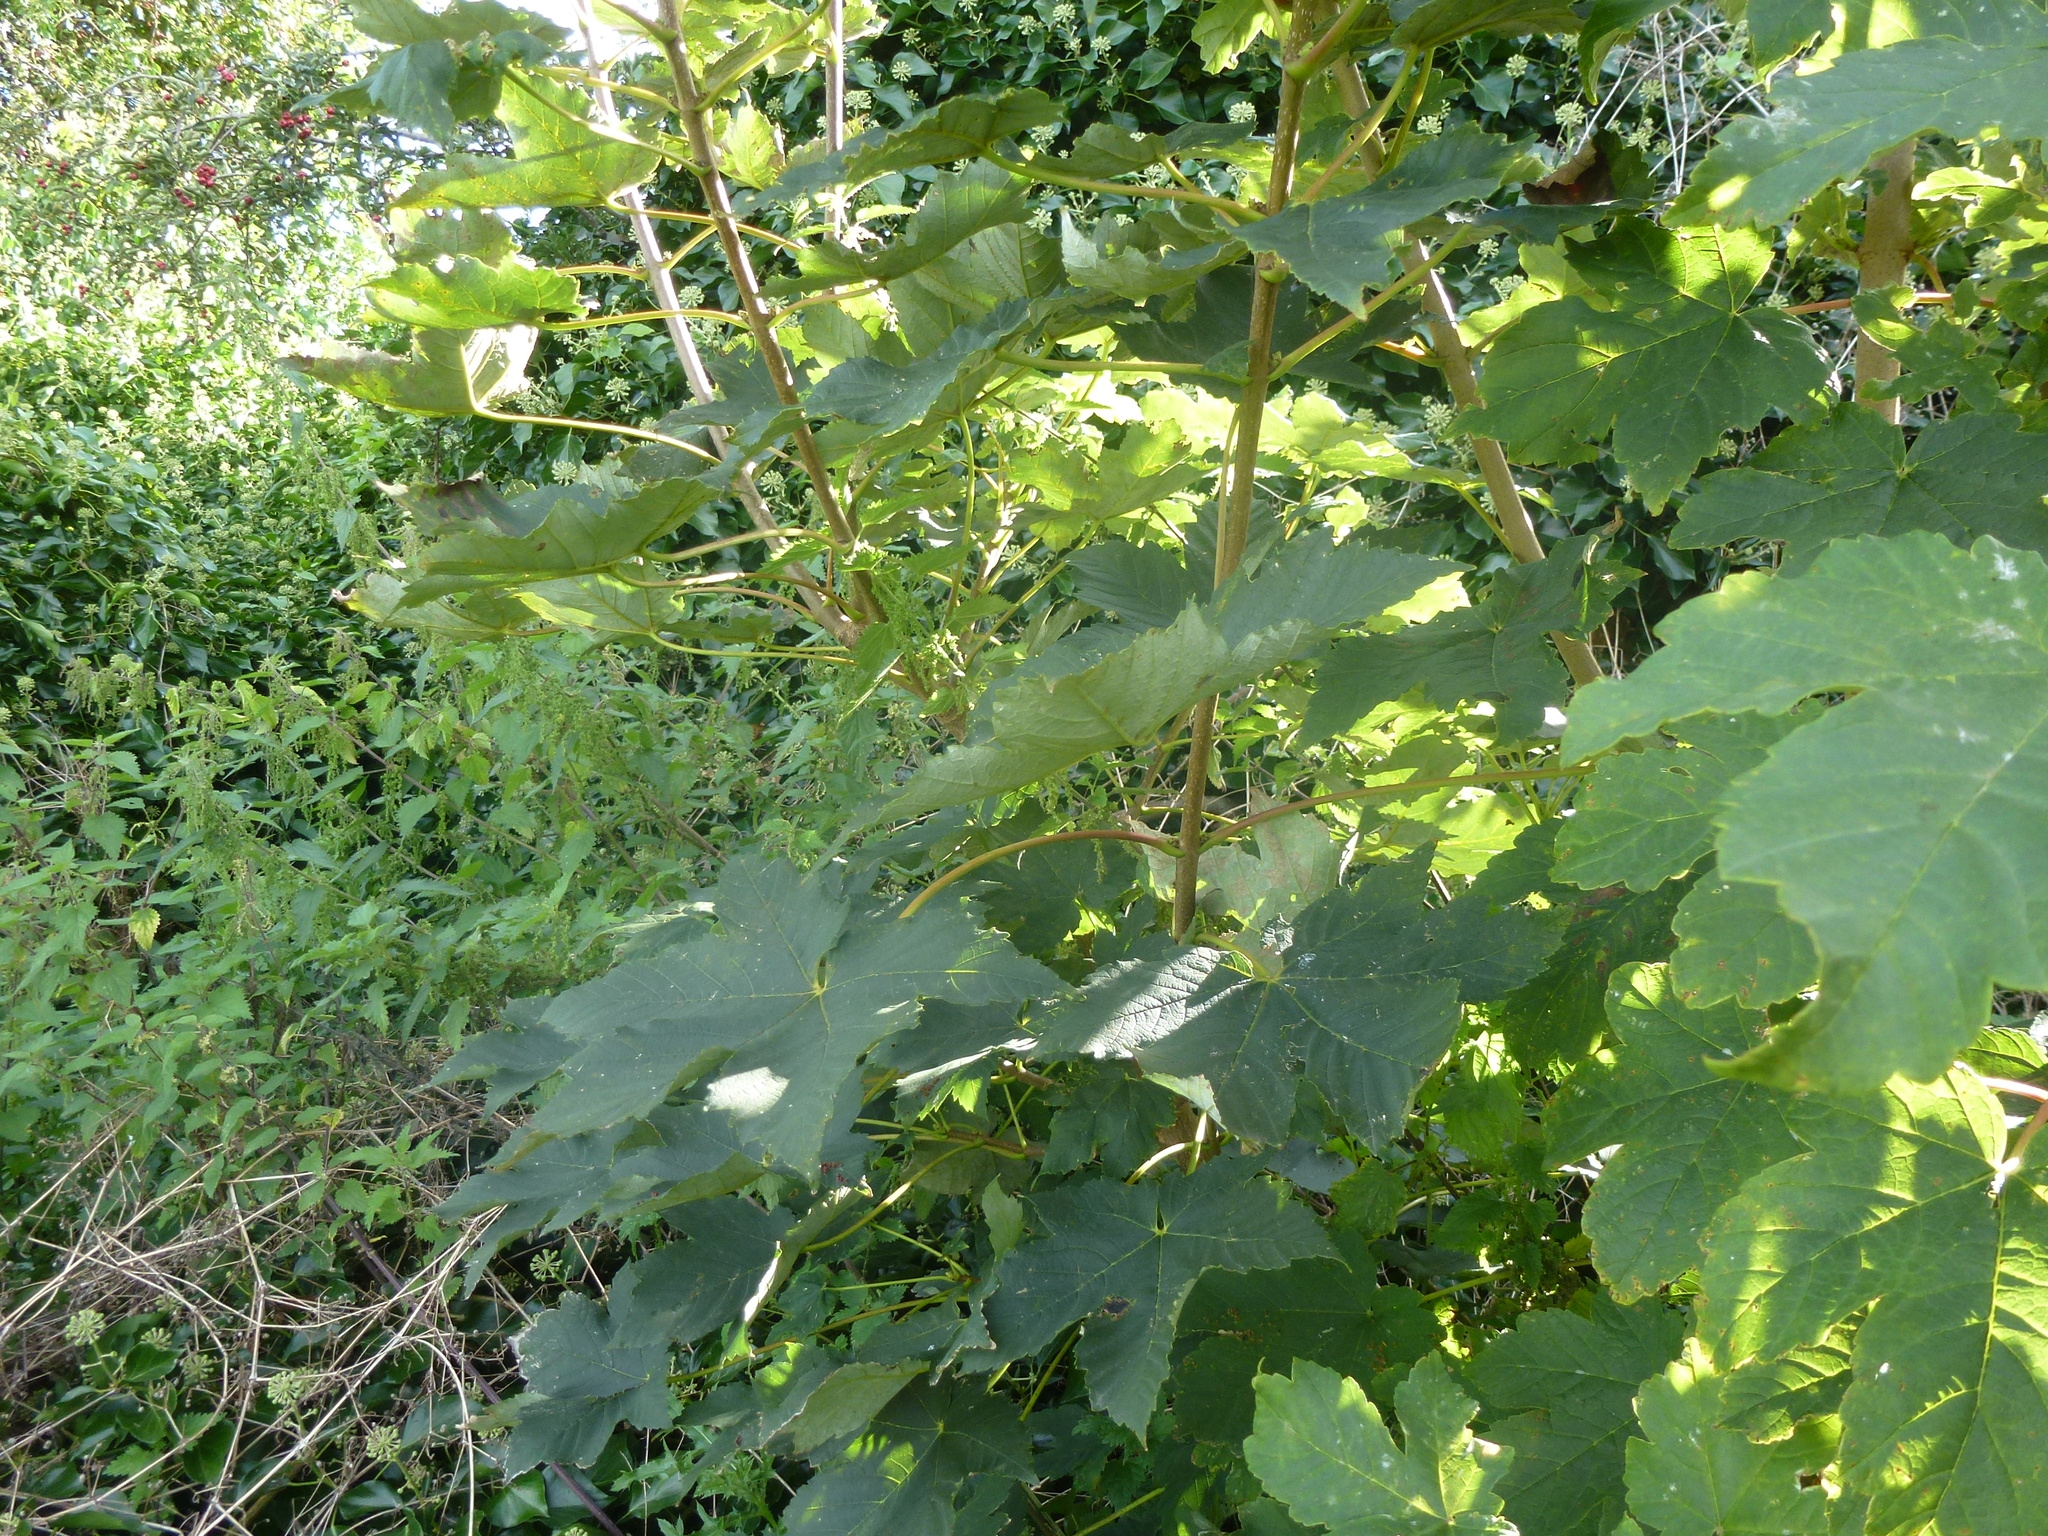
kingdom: Plantae
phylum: Tracheophyta
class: Magnoliopsida
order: Sapindales
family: Sapindaceae
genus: Acer
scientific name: Acer pseudoplatanus
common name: Sycamore
